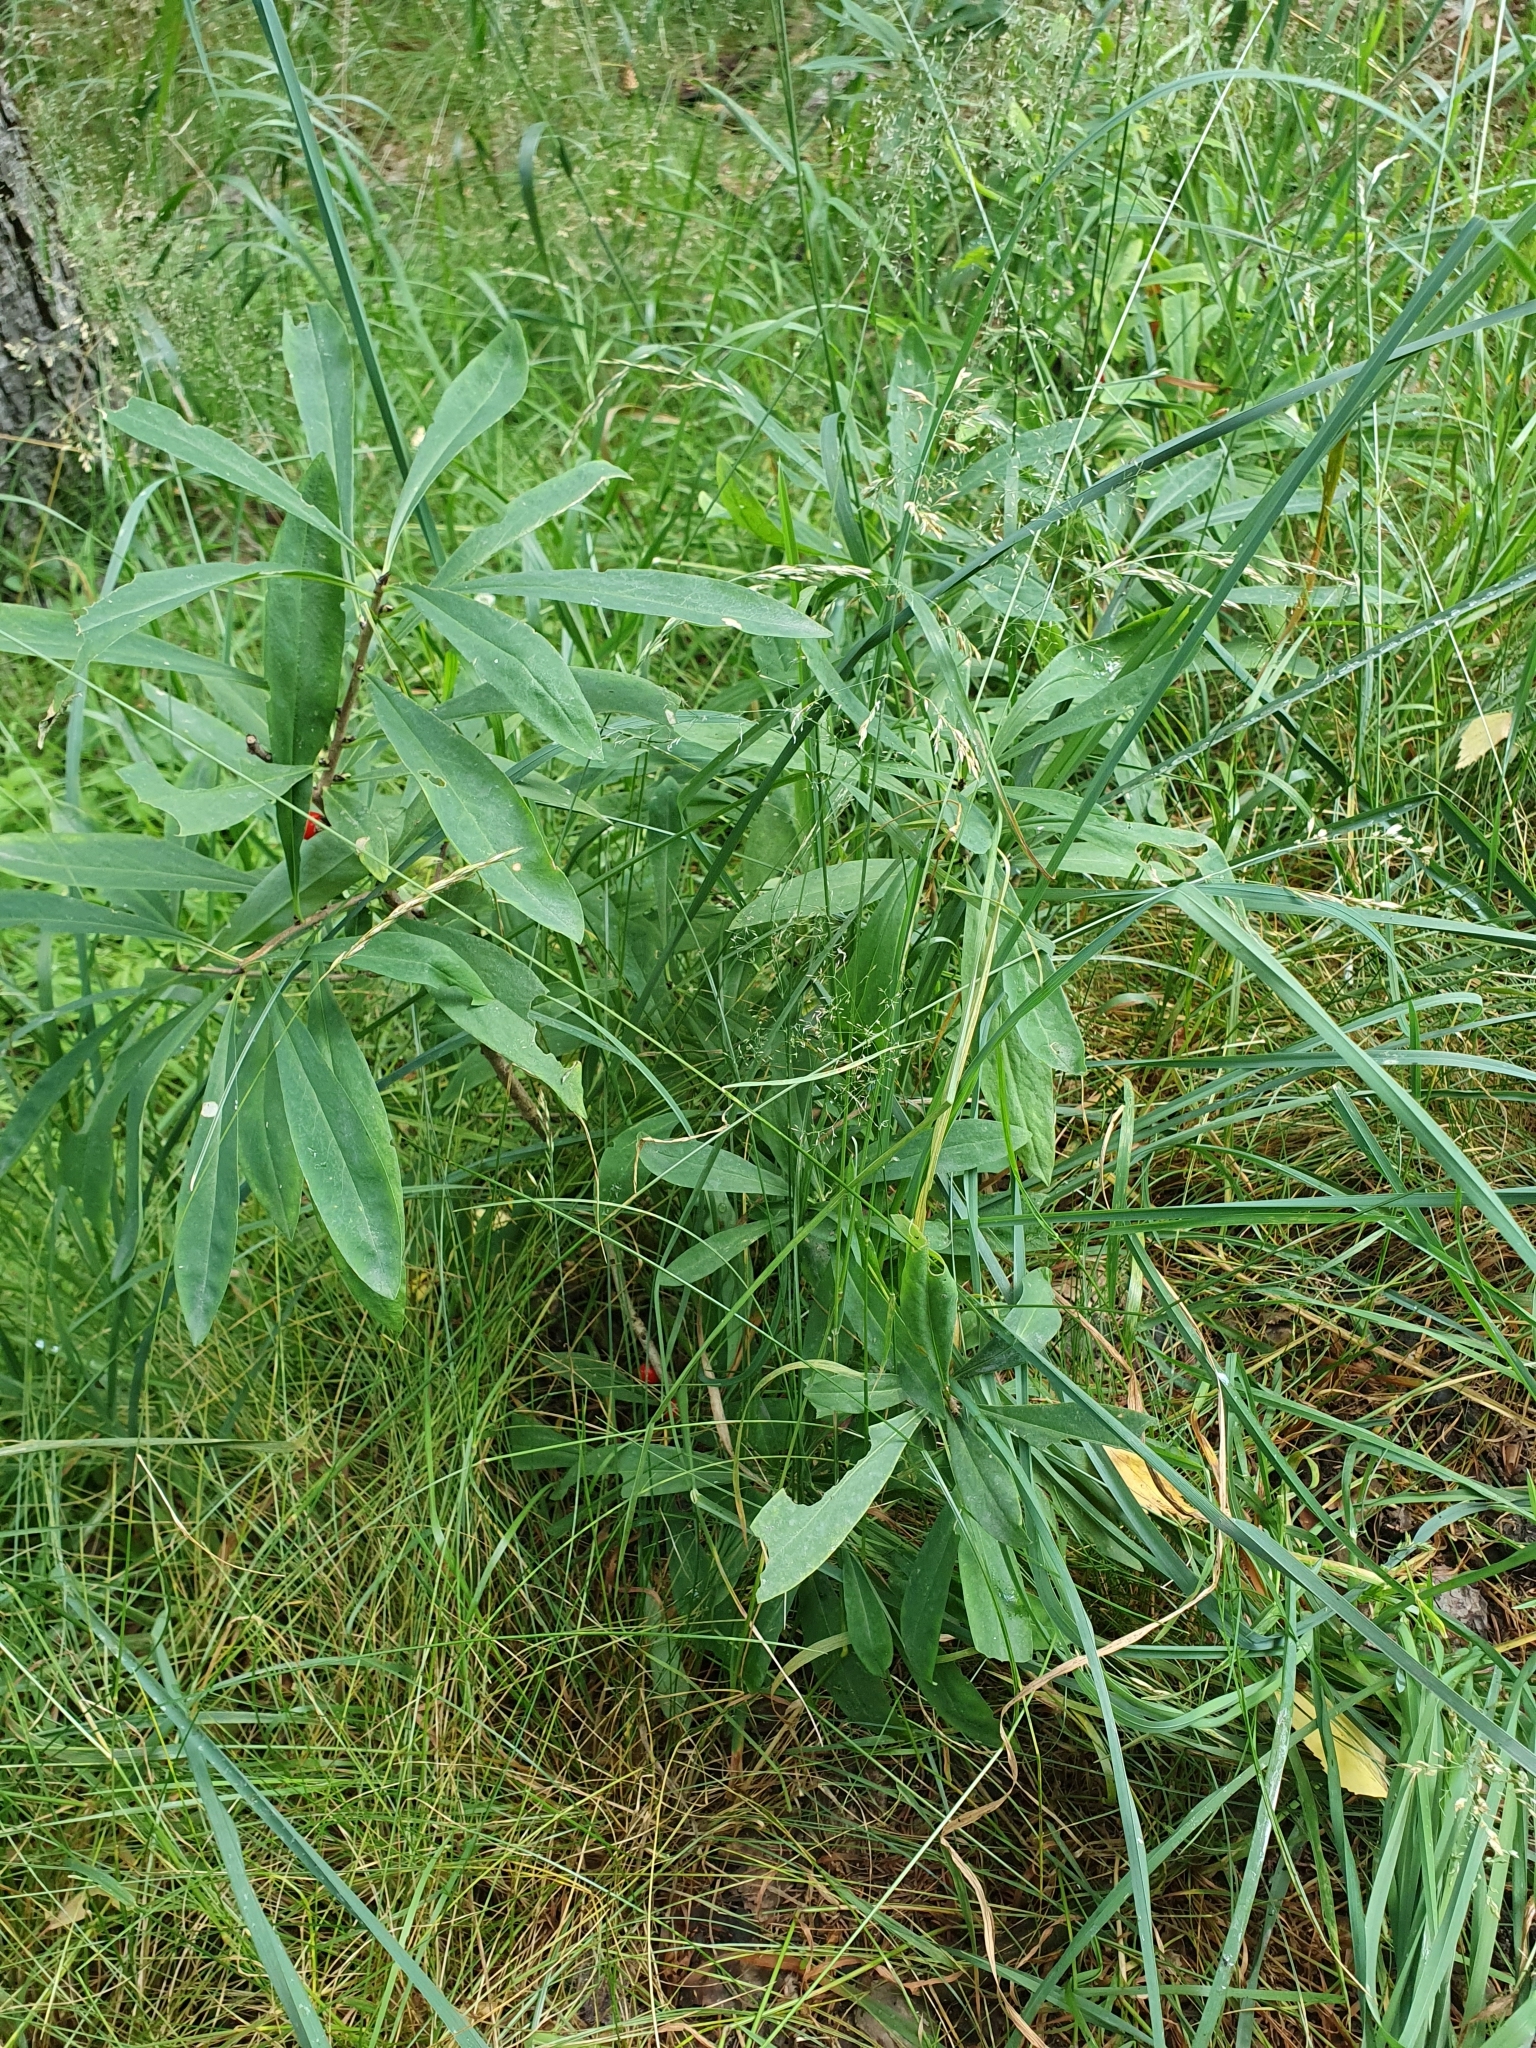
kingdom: Plantae
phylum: Tracheophyta
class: Magnoliopsida
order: Malvales
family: Thymelaeaceae
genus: Daphne
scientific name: Daphne mezereum
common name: Mezereon
